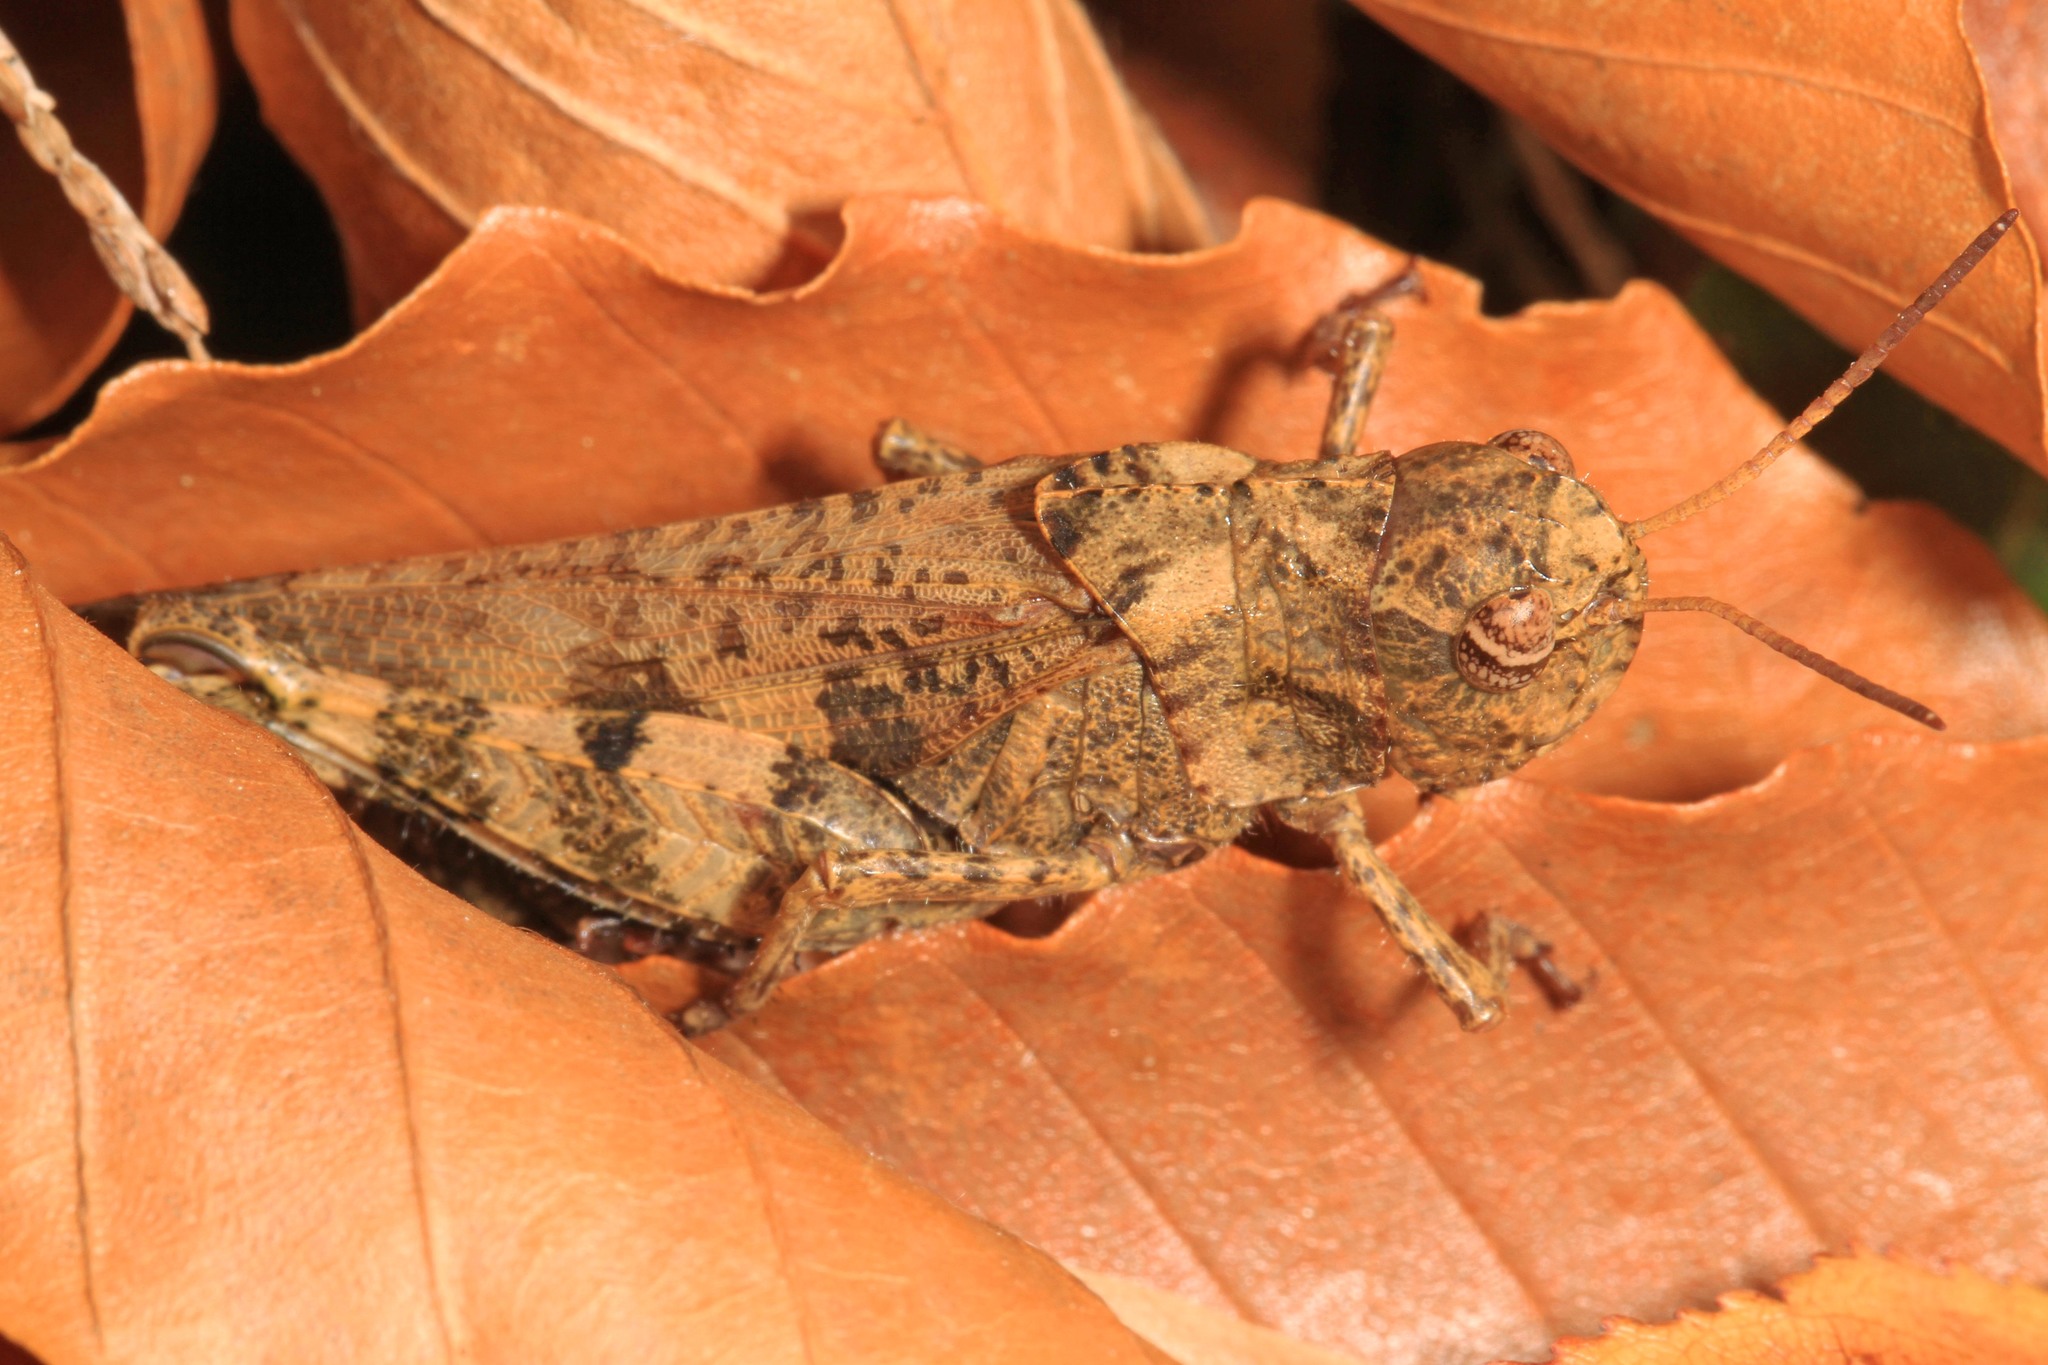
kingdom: Animalia
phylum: Arthropoda
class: Insecta
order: Orthoptera
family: Acrididae
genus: Encoptolophus
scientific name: Encoptolophus sordidus
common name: Dusky grasshopper
